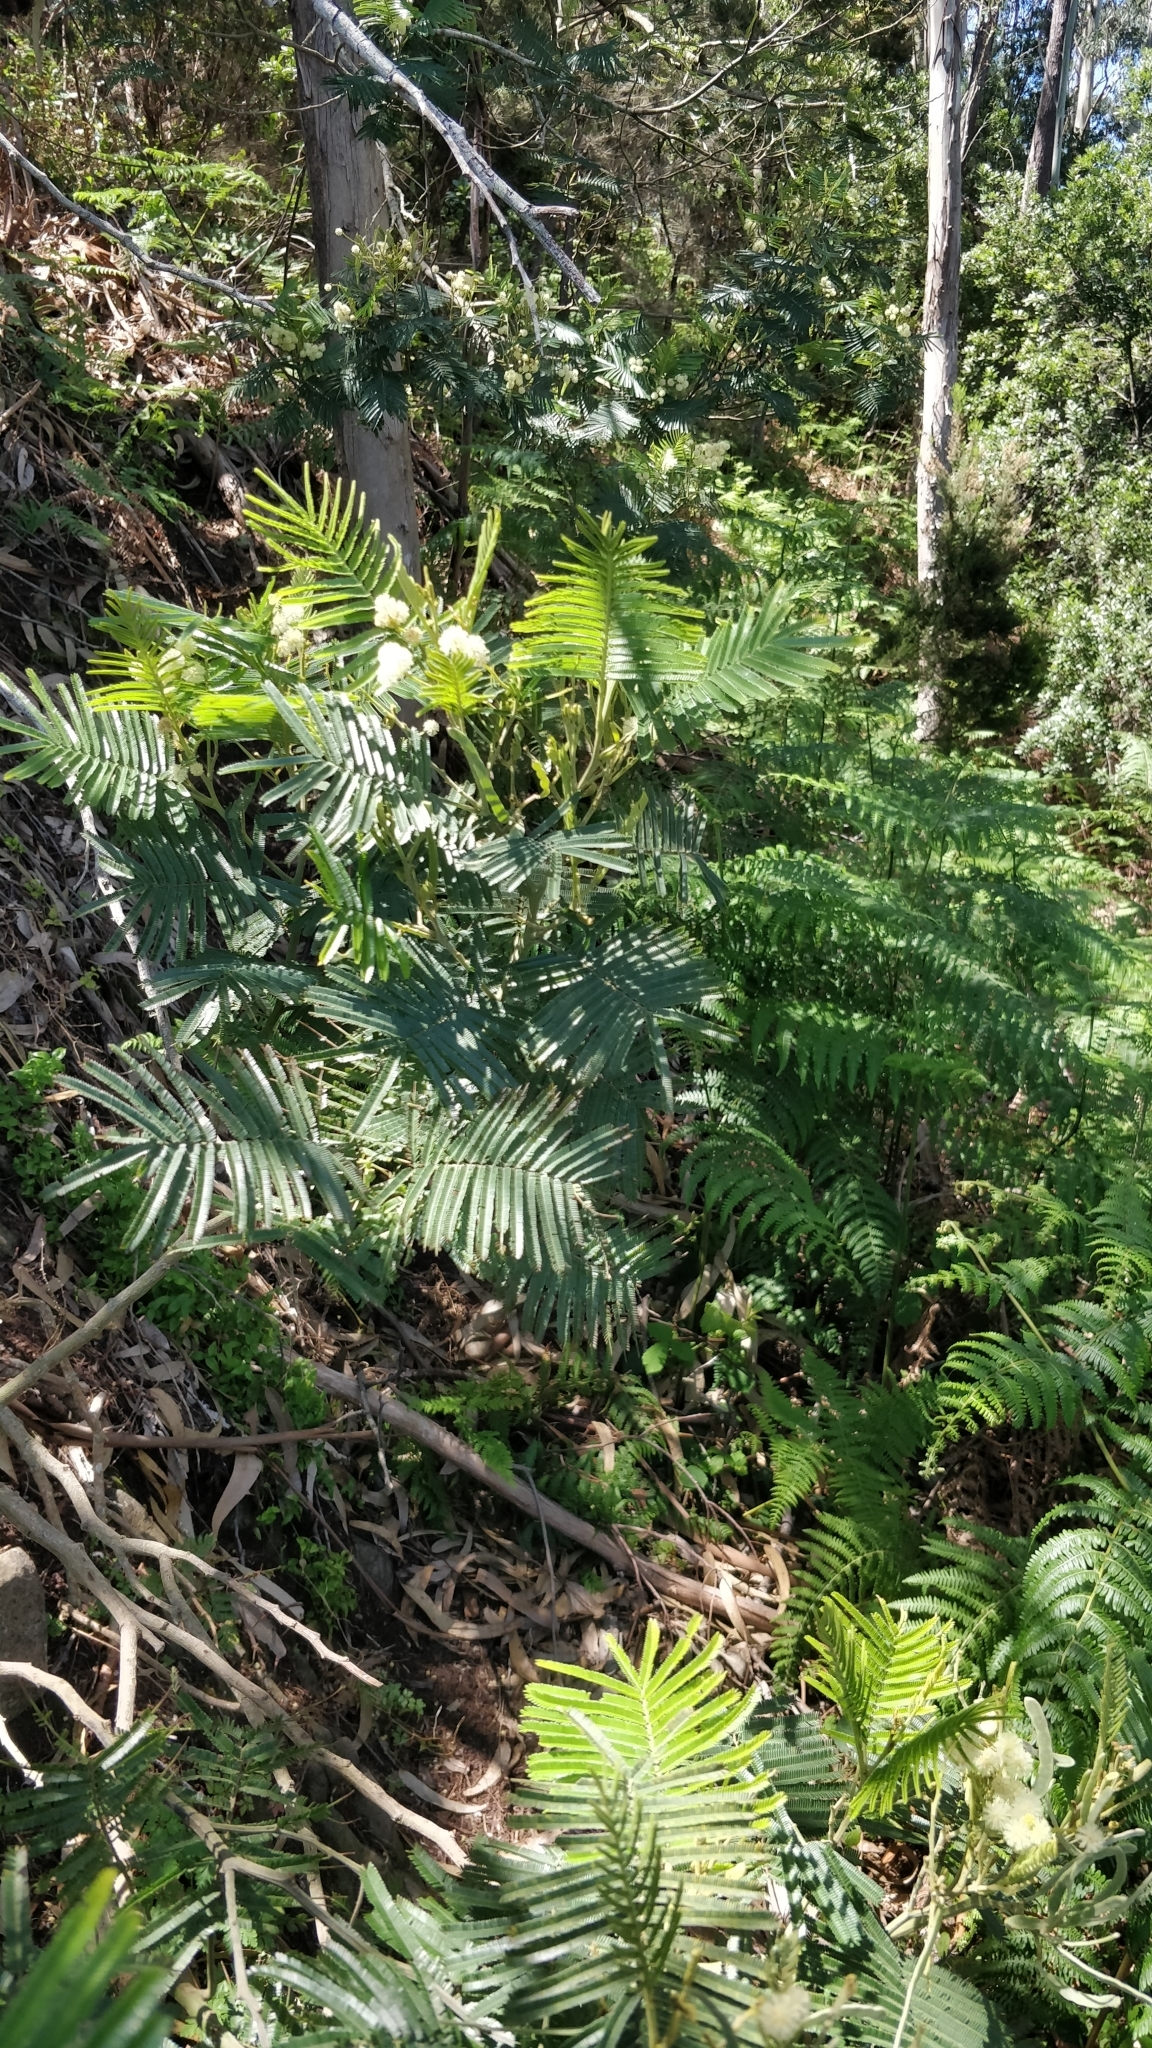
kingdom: Plantae
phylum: Tracheophyta
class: Magnoliopsida
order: Fabales
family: Fabaceae
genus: Acacia
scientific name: Acacia mearnsii
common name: Black wattle
